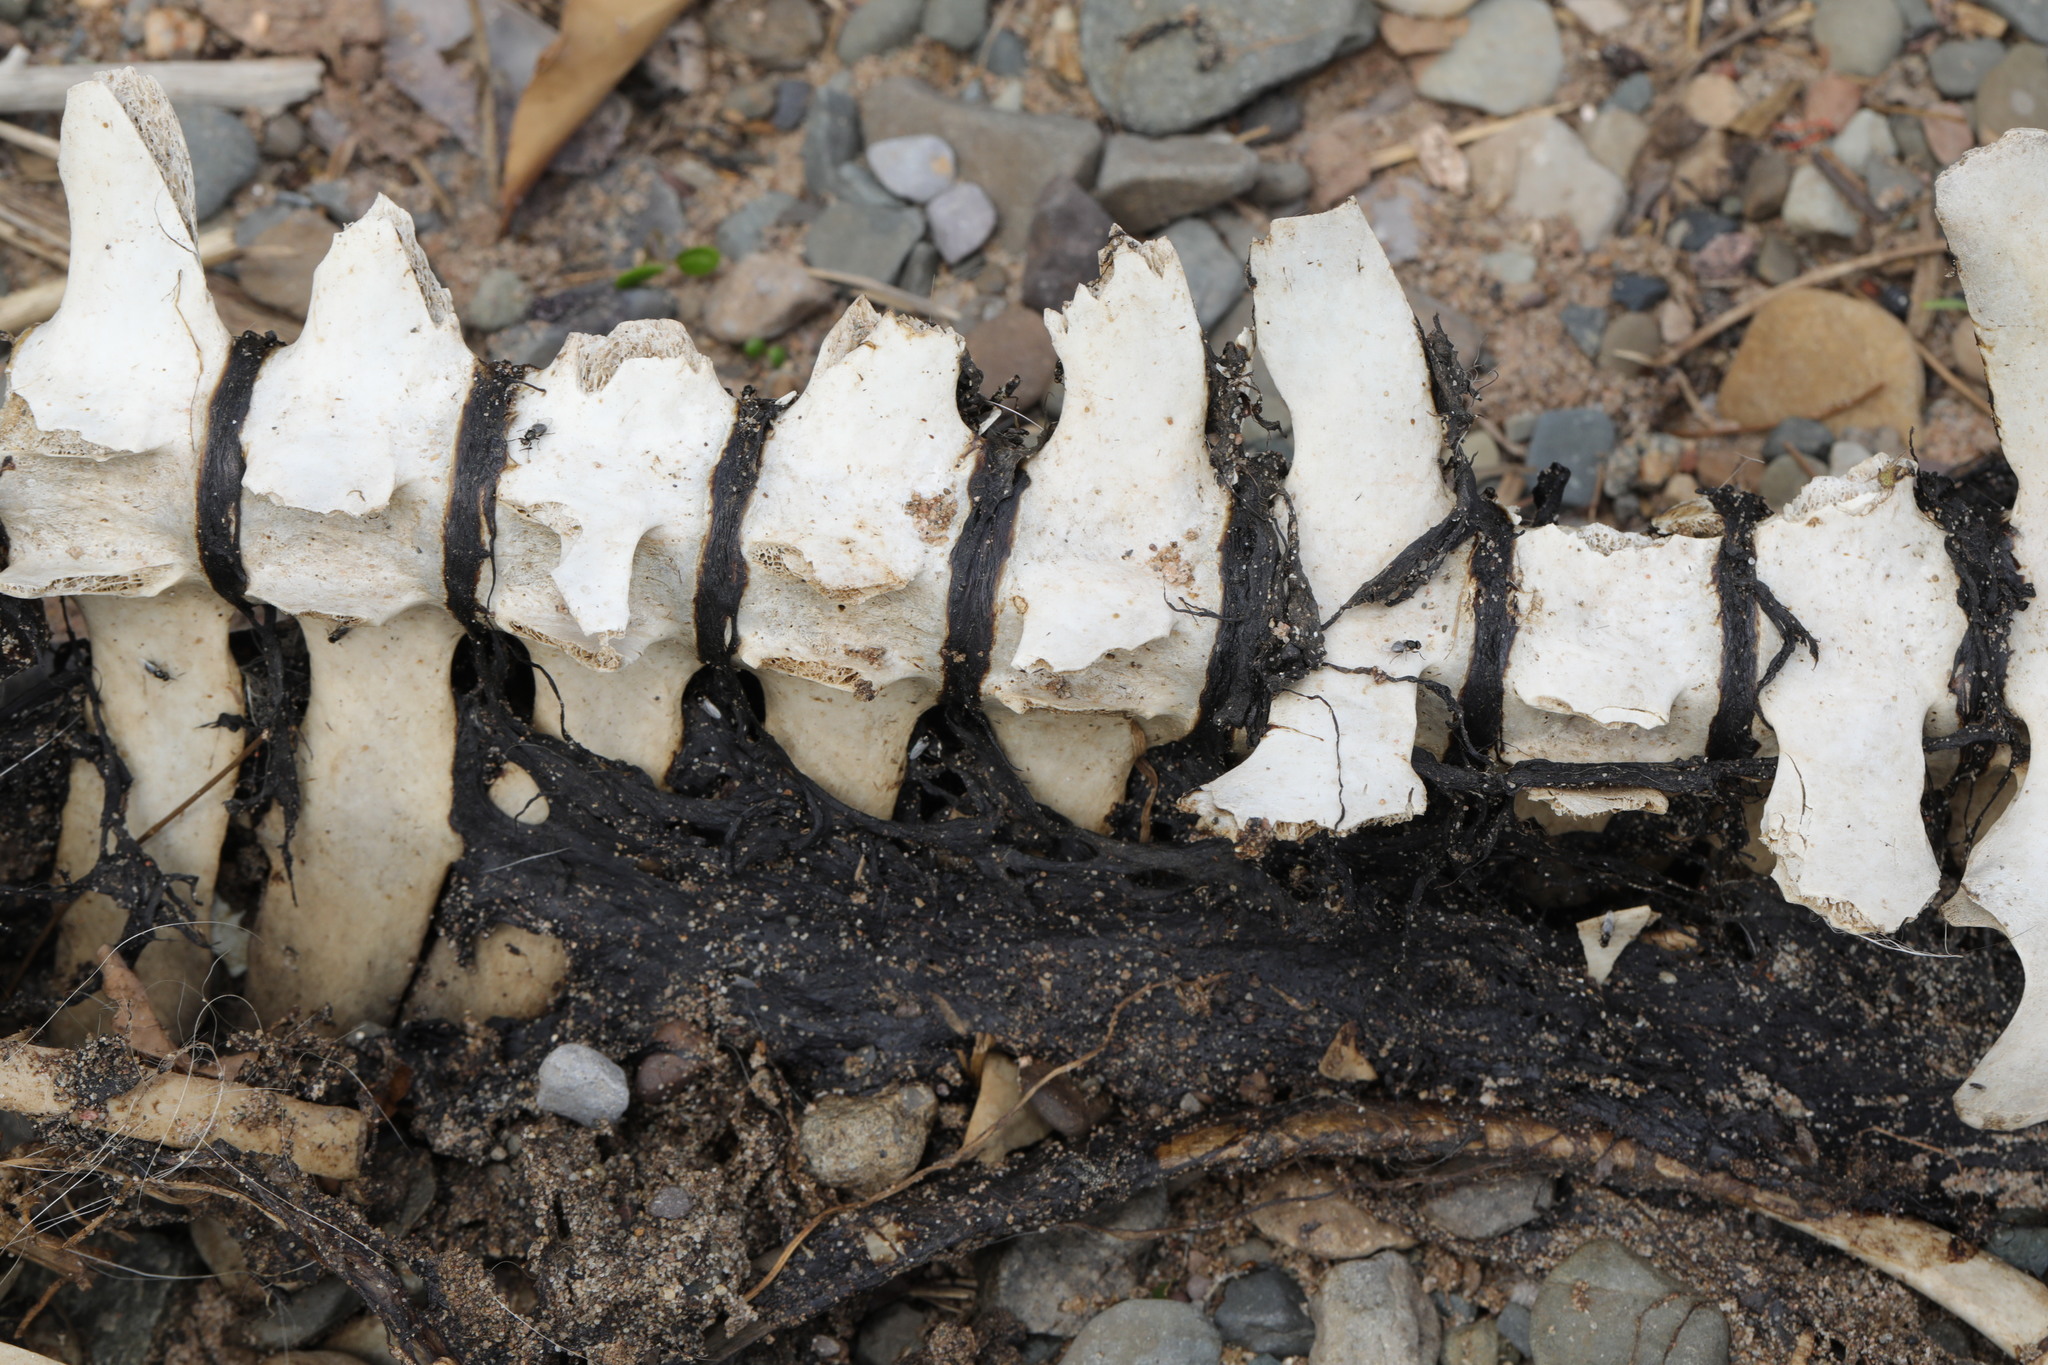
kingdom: Animalia
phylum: Chordata
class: Mammalia
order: Cetacea
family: Phocoenidae
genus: Phocoena
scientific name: Phocoena phocoena
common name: Harbor porpoise
